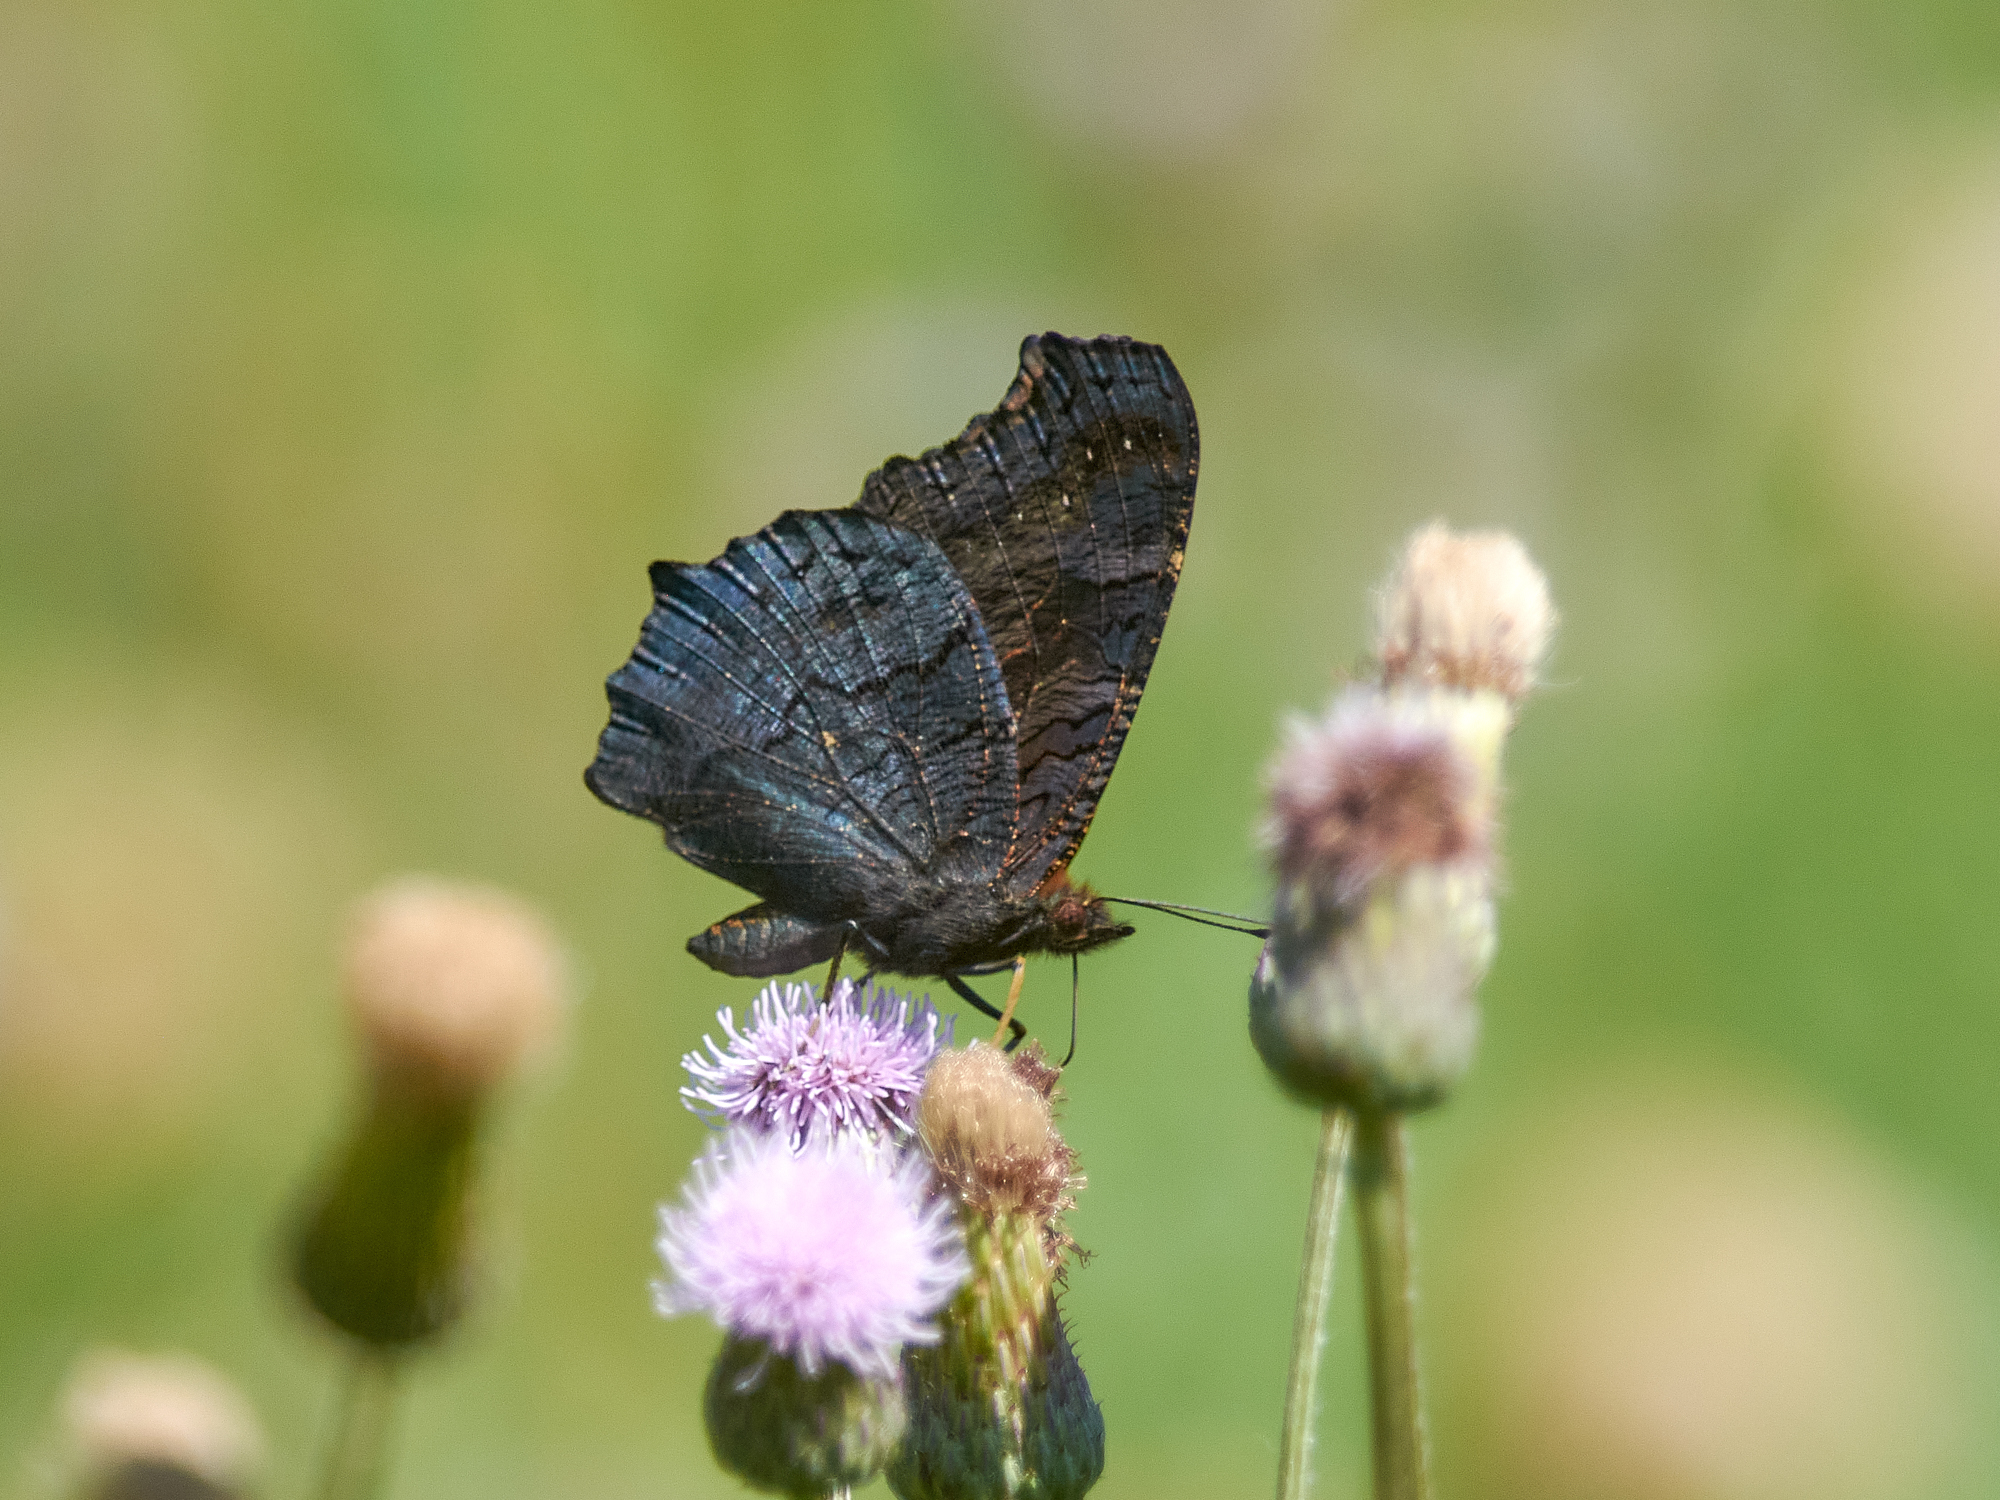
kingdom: Animalia
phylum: Arthropoda
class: Insecta
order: Lepidoptera
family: Nymphalidae
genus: Aglais
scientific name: Aglais io
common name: Peacock
